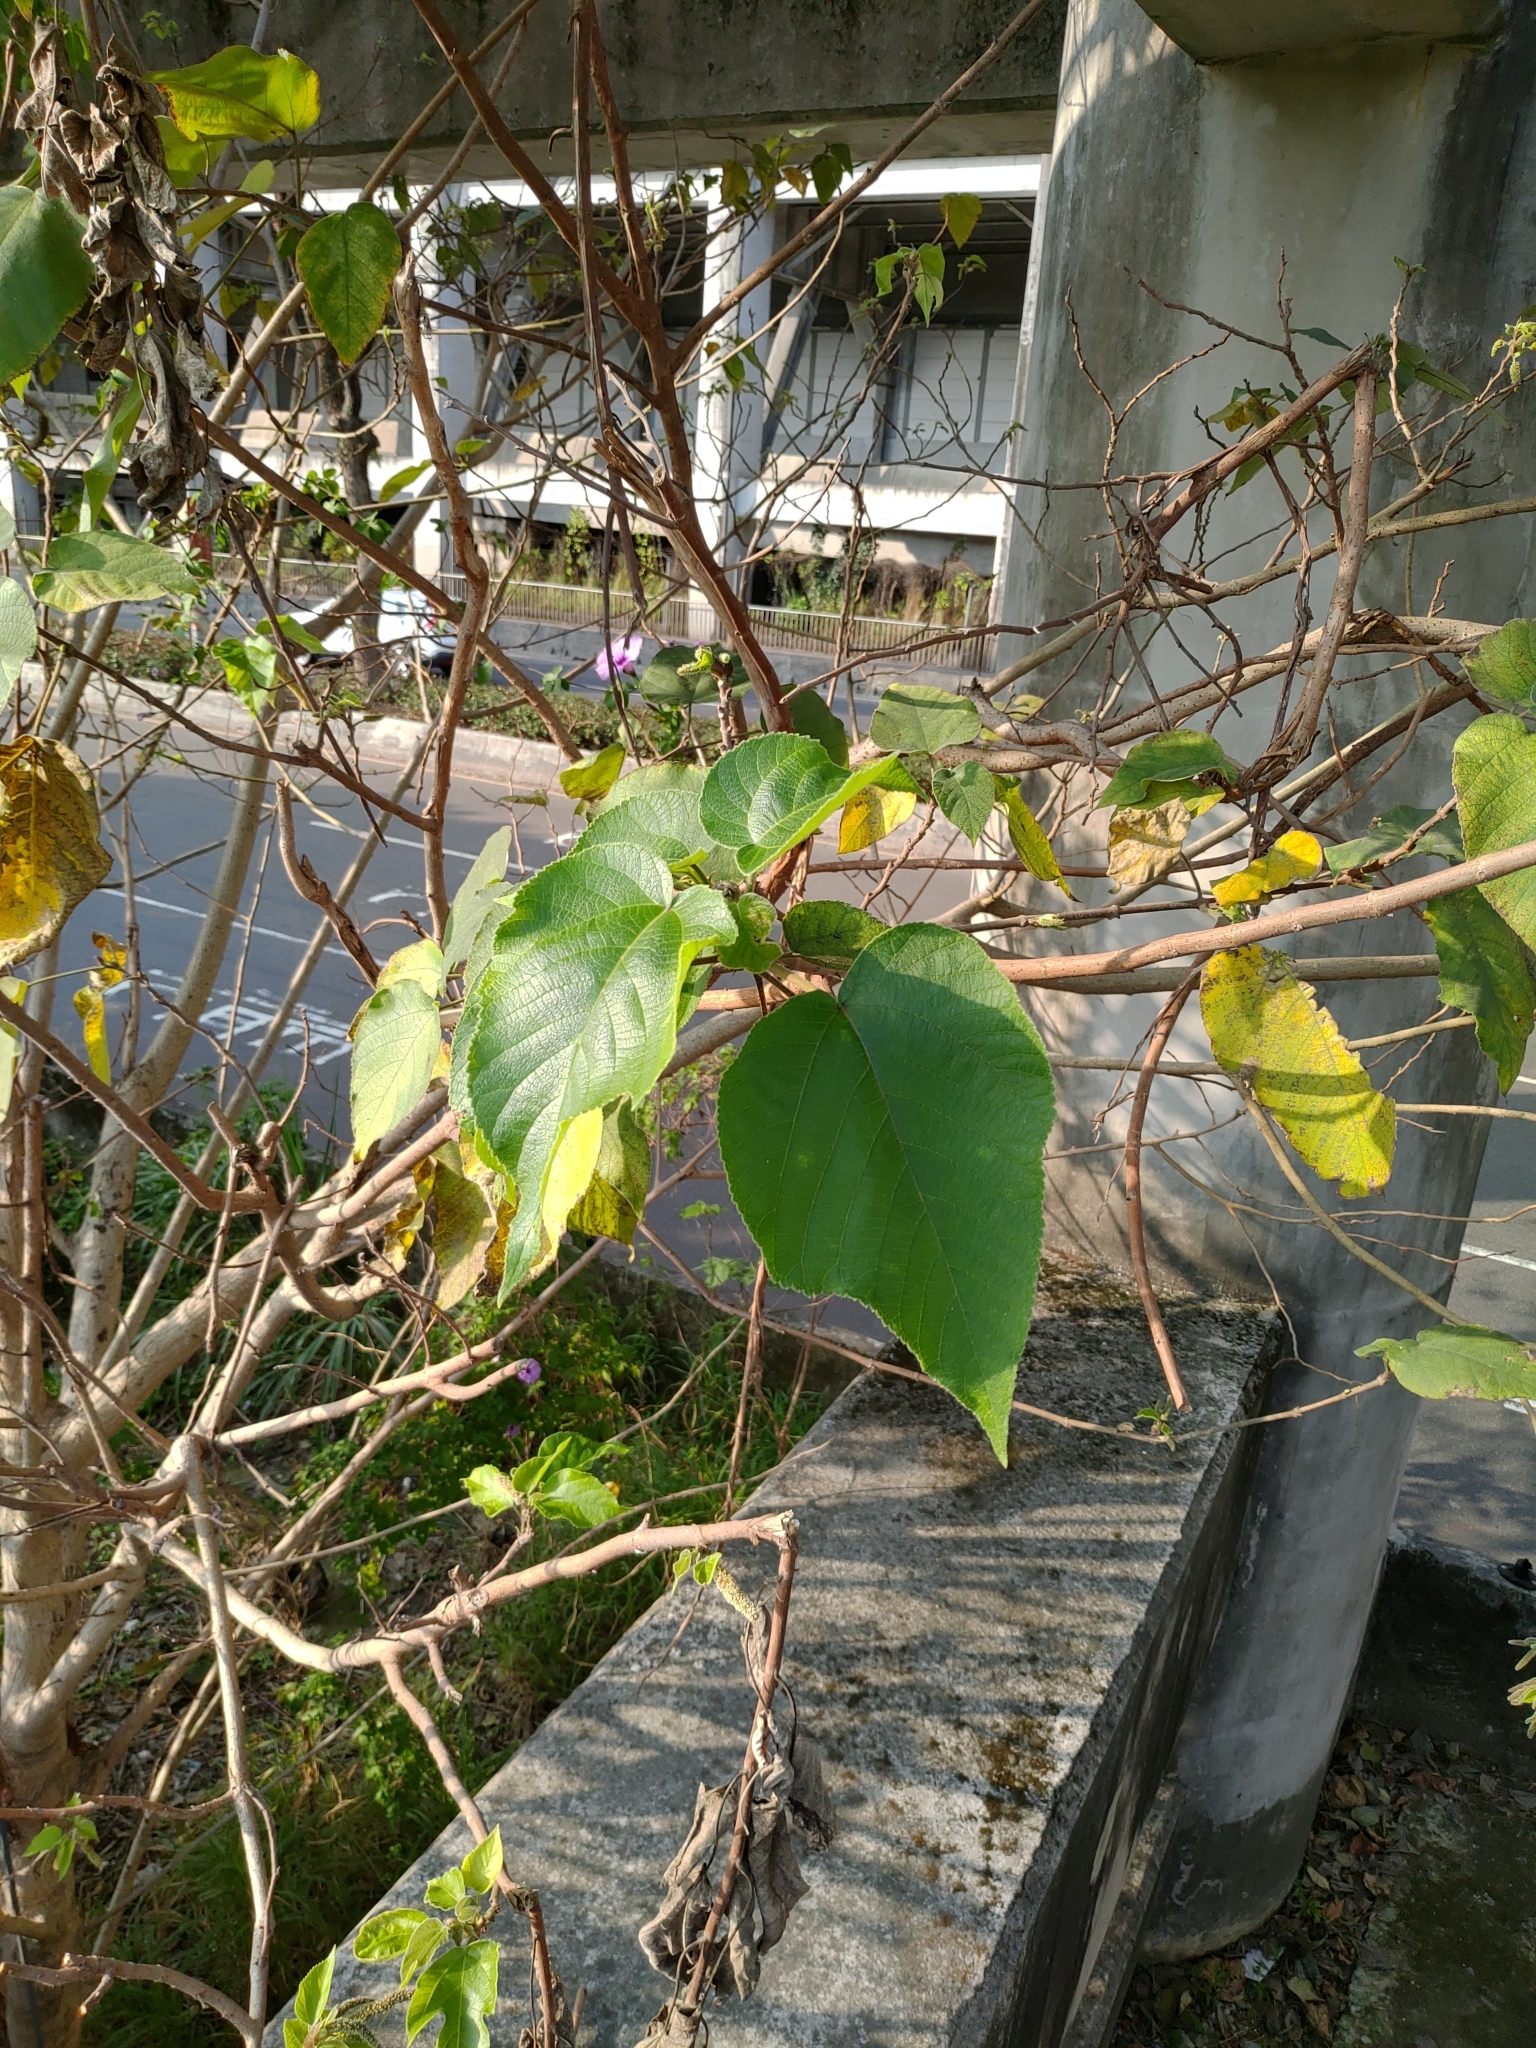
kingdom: Plantae
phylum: Tracheophyta
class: Magnoliopsida
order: Rosales
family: Moraceae
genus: Broussonetia
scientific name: Broussonetia papyrifera
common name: Paper mulberry
